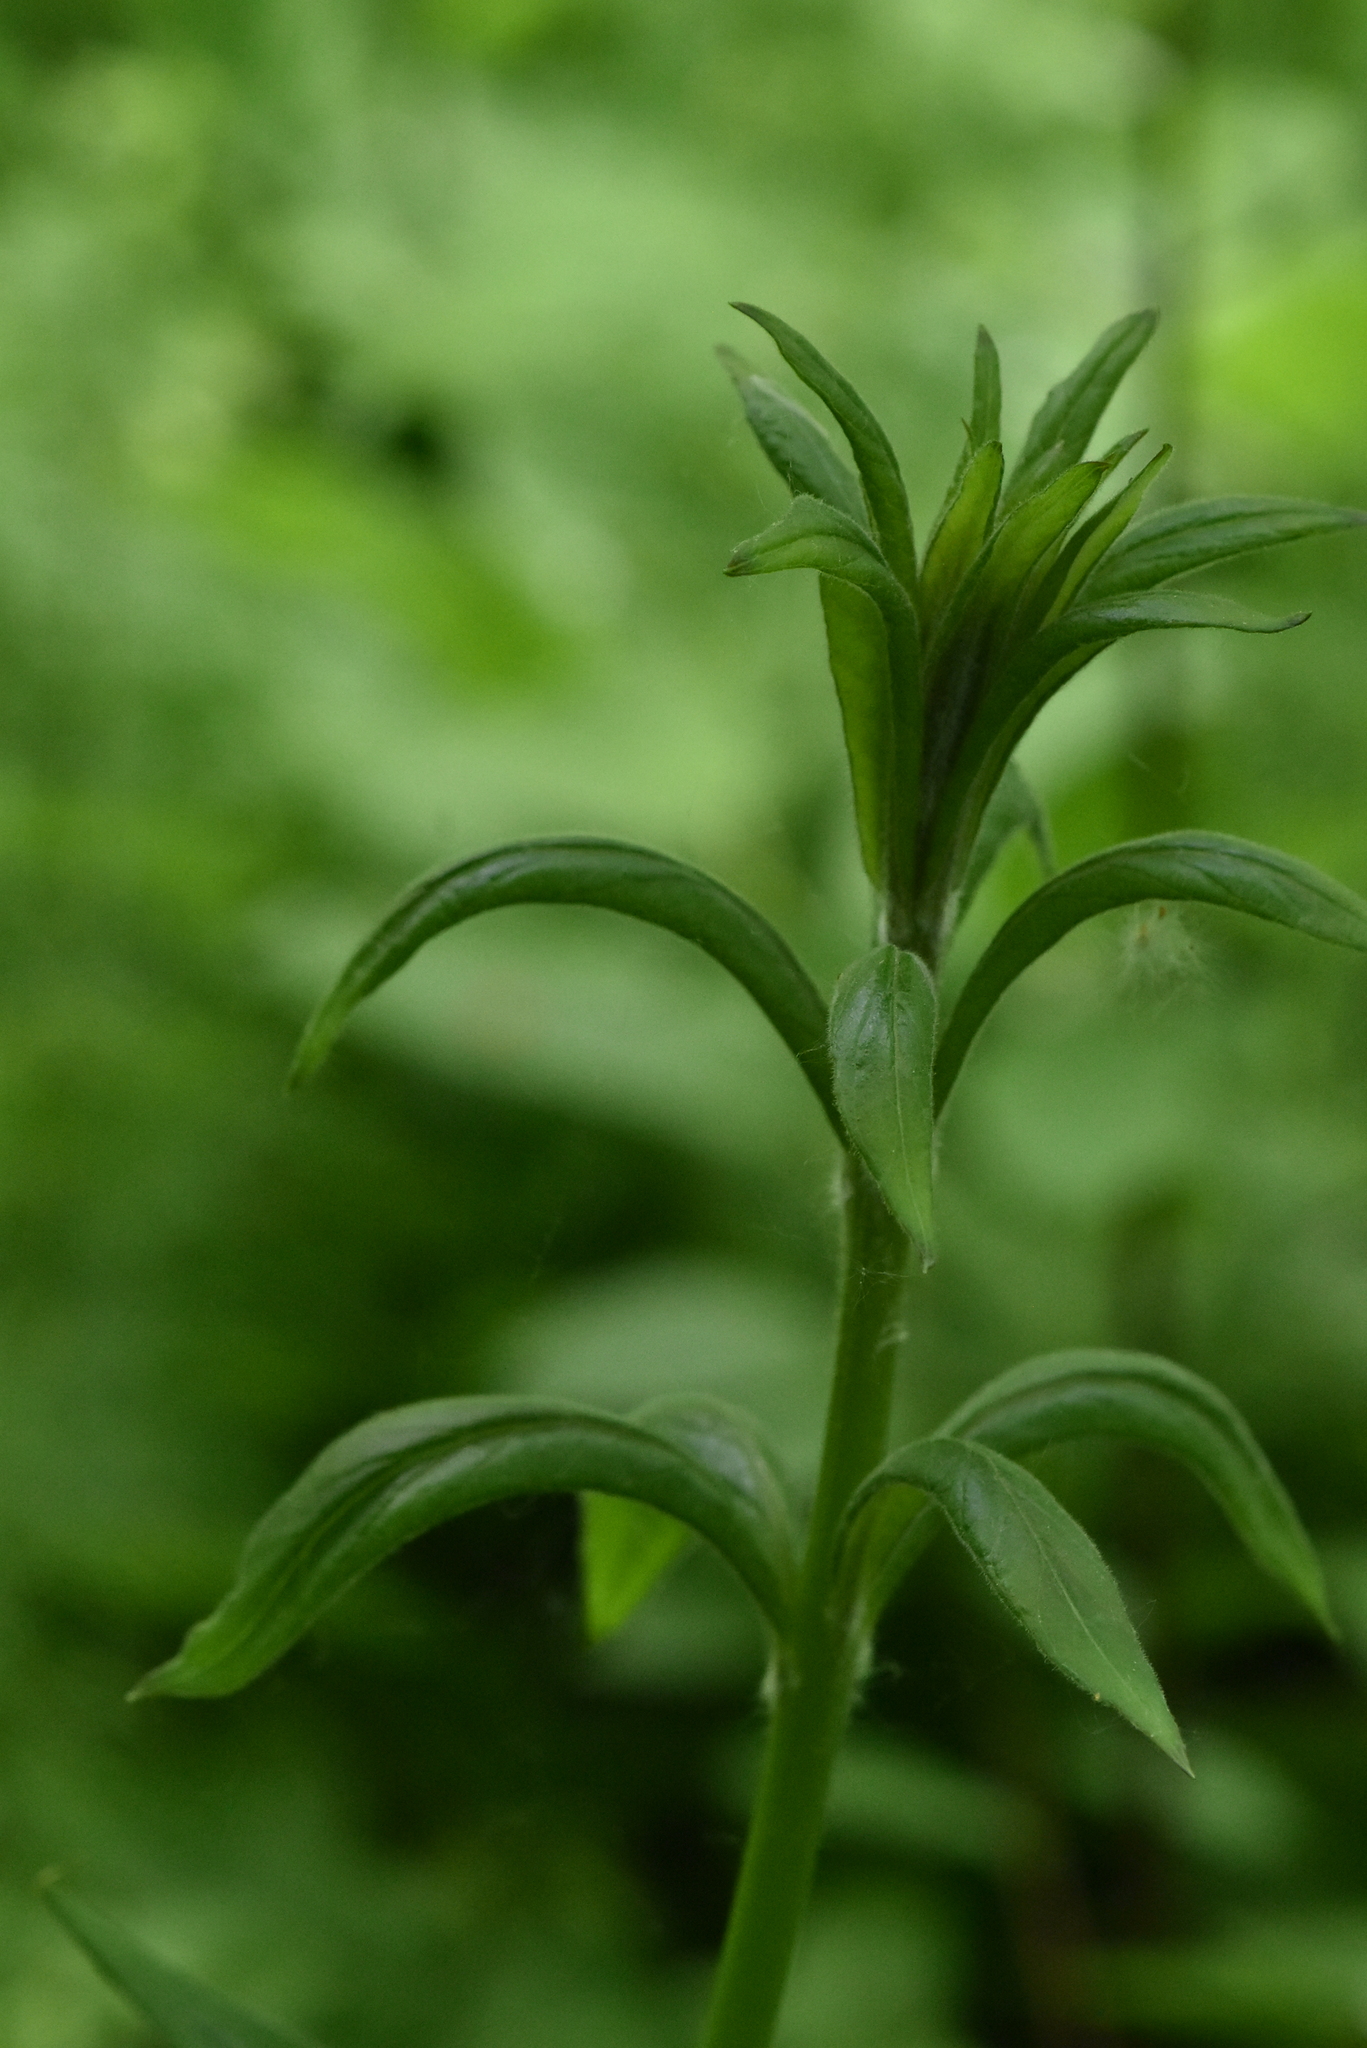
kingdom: Plantae
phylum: Tracheophyta
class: Magnoliopsida
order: Ericales
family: Primulaceae
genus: Lysimachia
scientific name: Lysimachia vulgaris
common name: Yellow loosestrife
